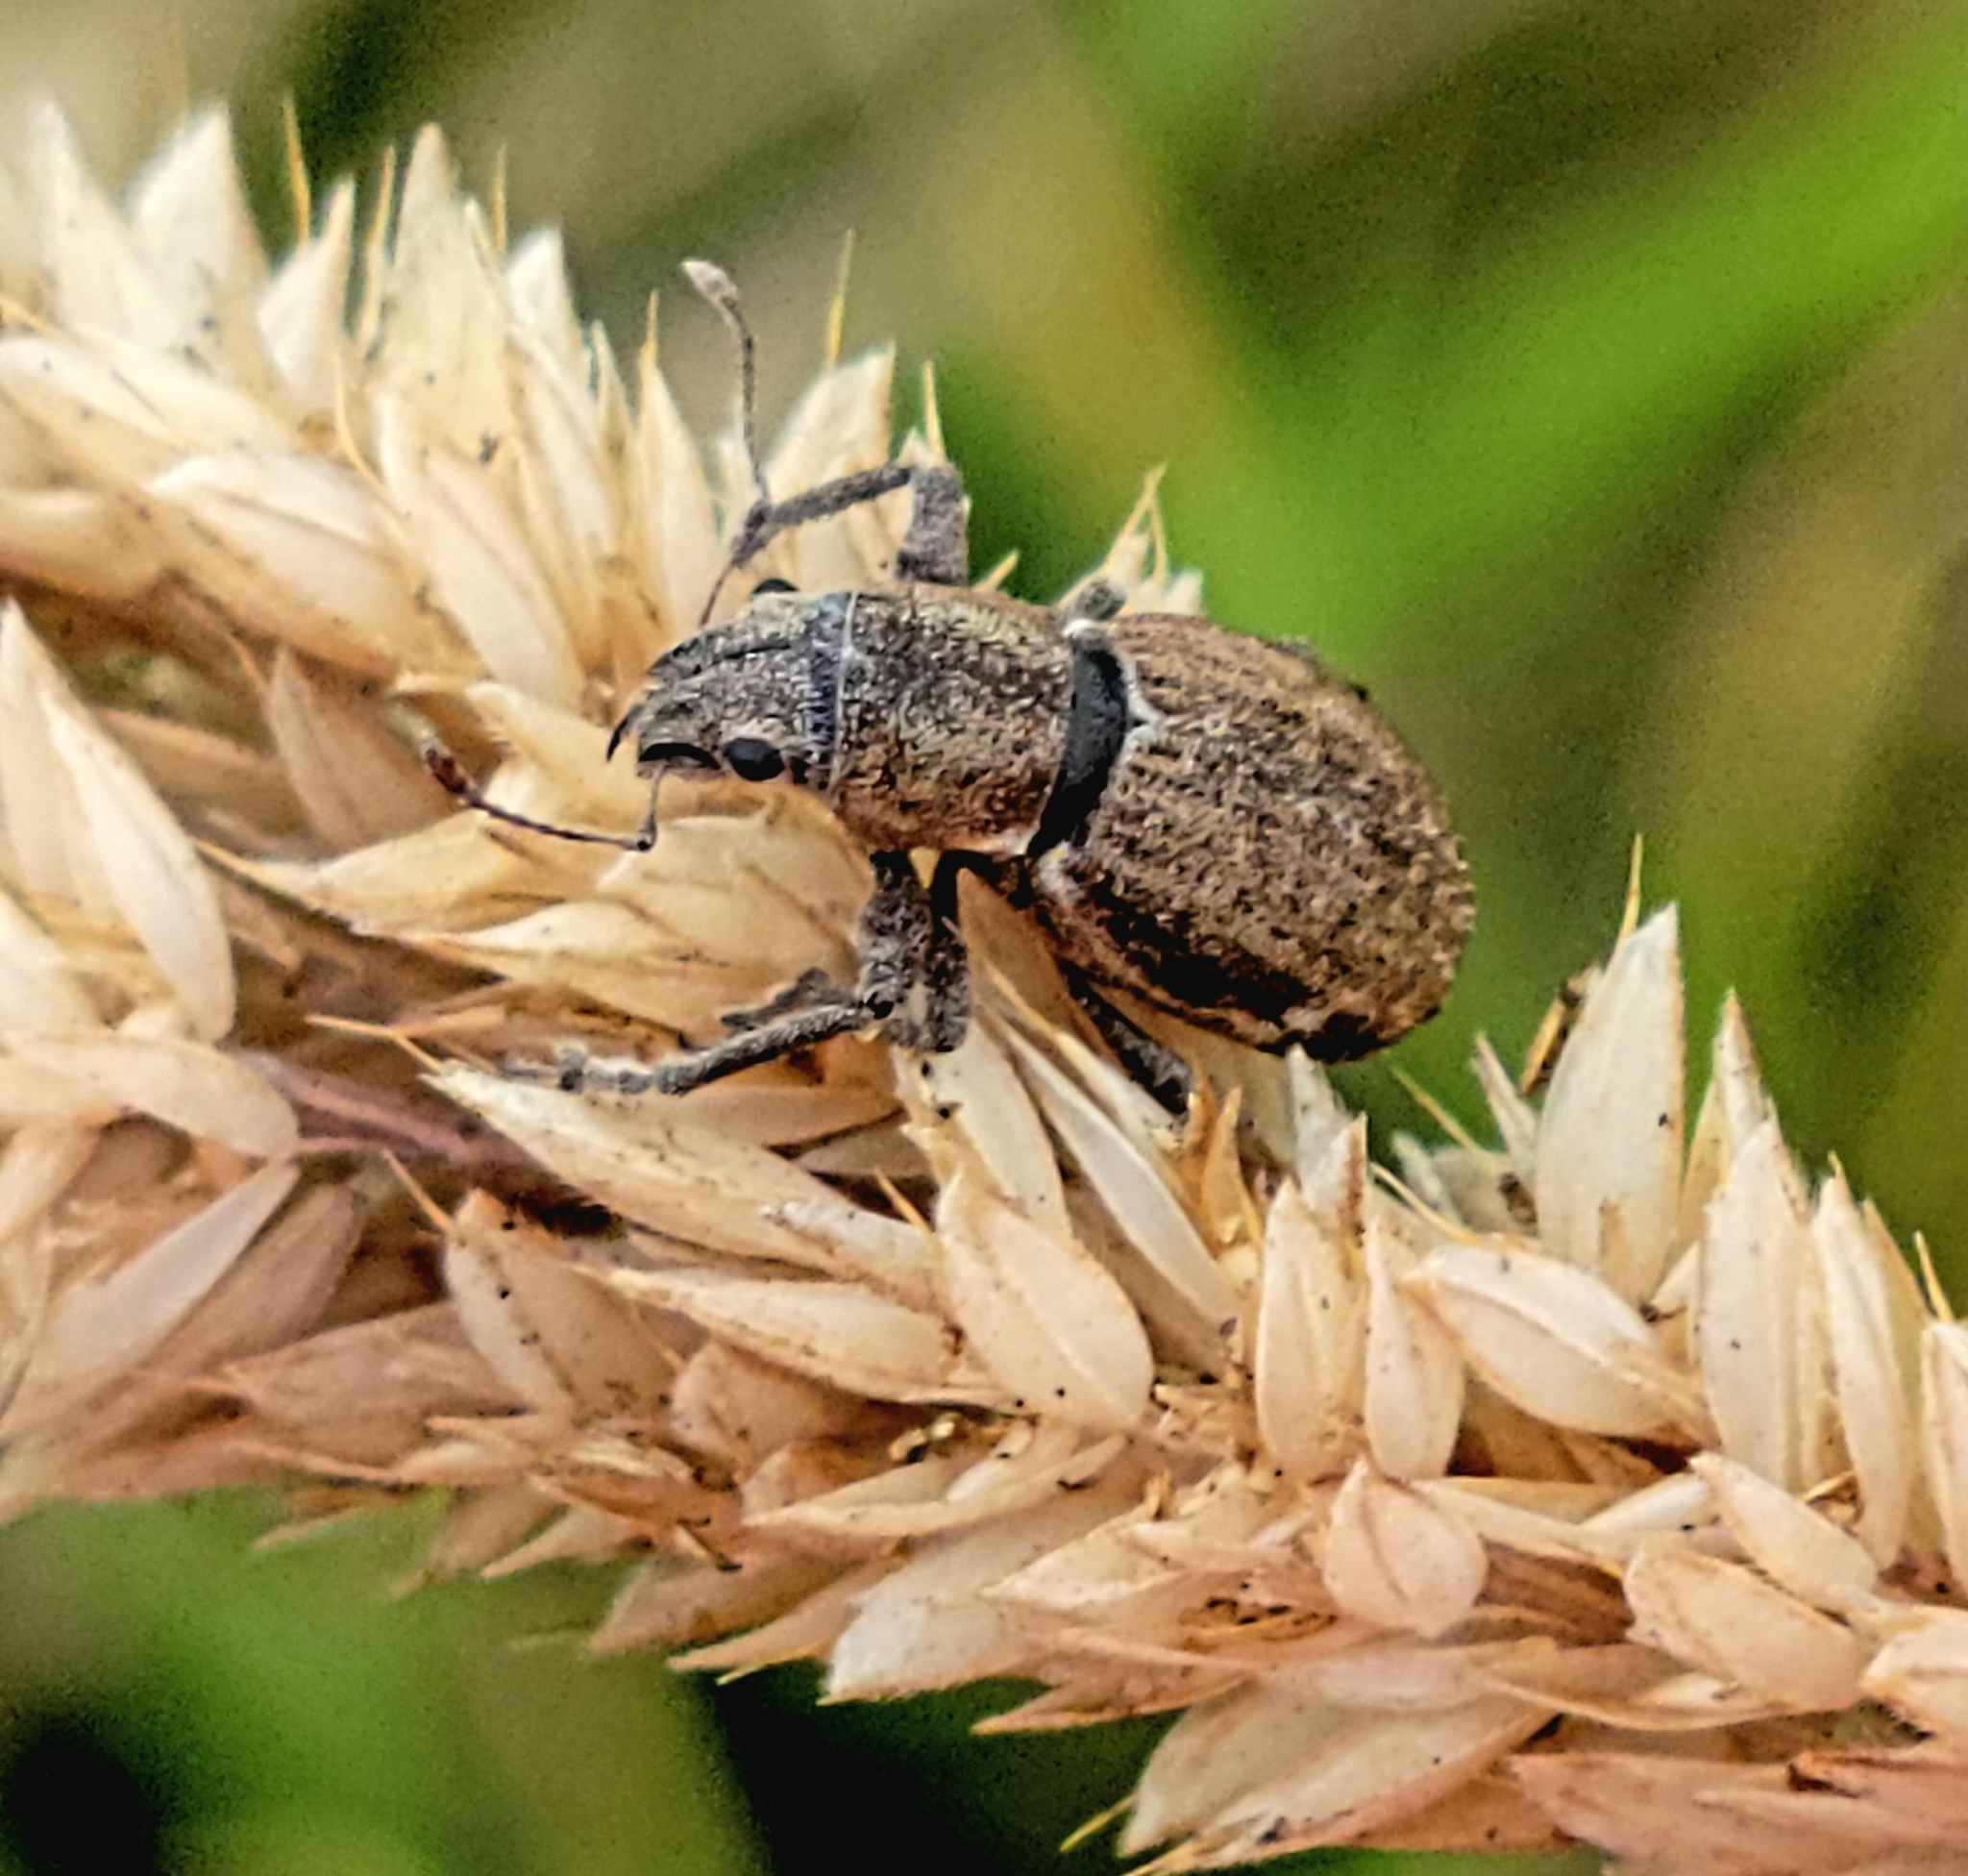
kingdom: Animalia
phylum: Arthropoda
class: Insecta
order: Coleoptera
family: Curculionidae
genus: Naupactus
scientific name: Naupactus cervinus
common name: Fuller rose beetle
